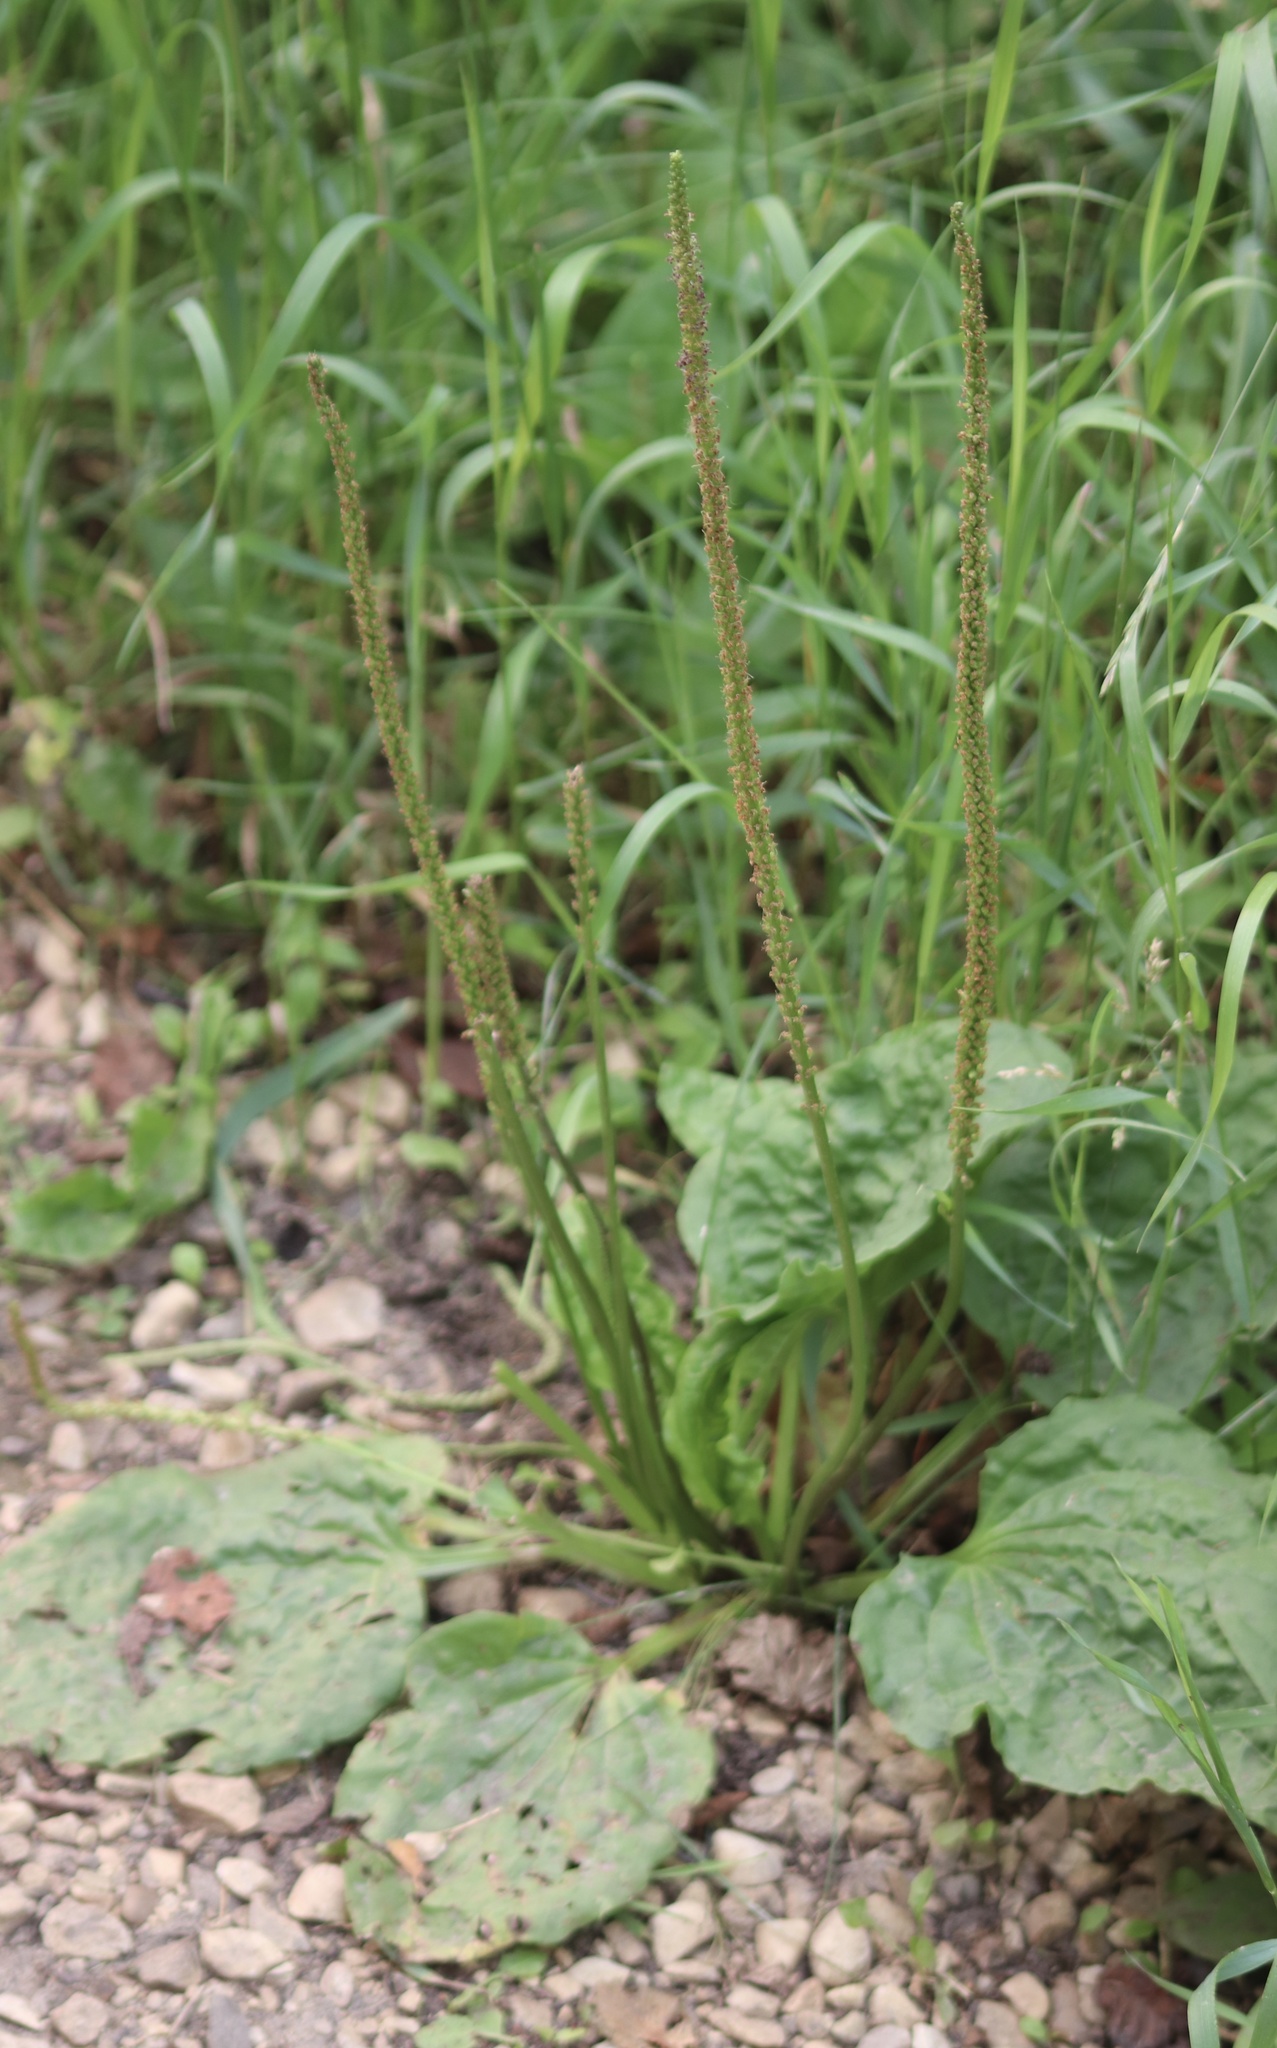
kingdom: Plantae
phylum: Tracheophyta
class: Magnoliopsida
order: Lamiales
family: Plantaginaceae
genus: Plantago
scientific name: Plantago major
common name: Common plantain
